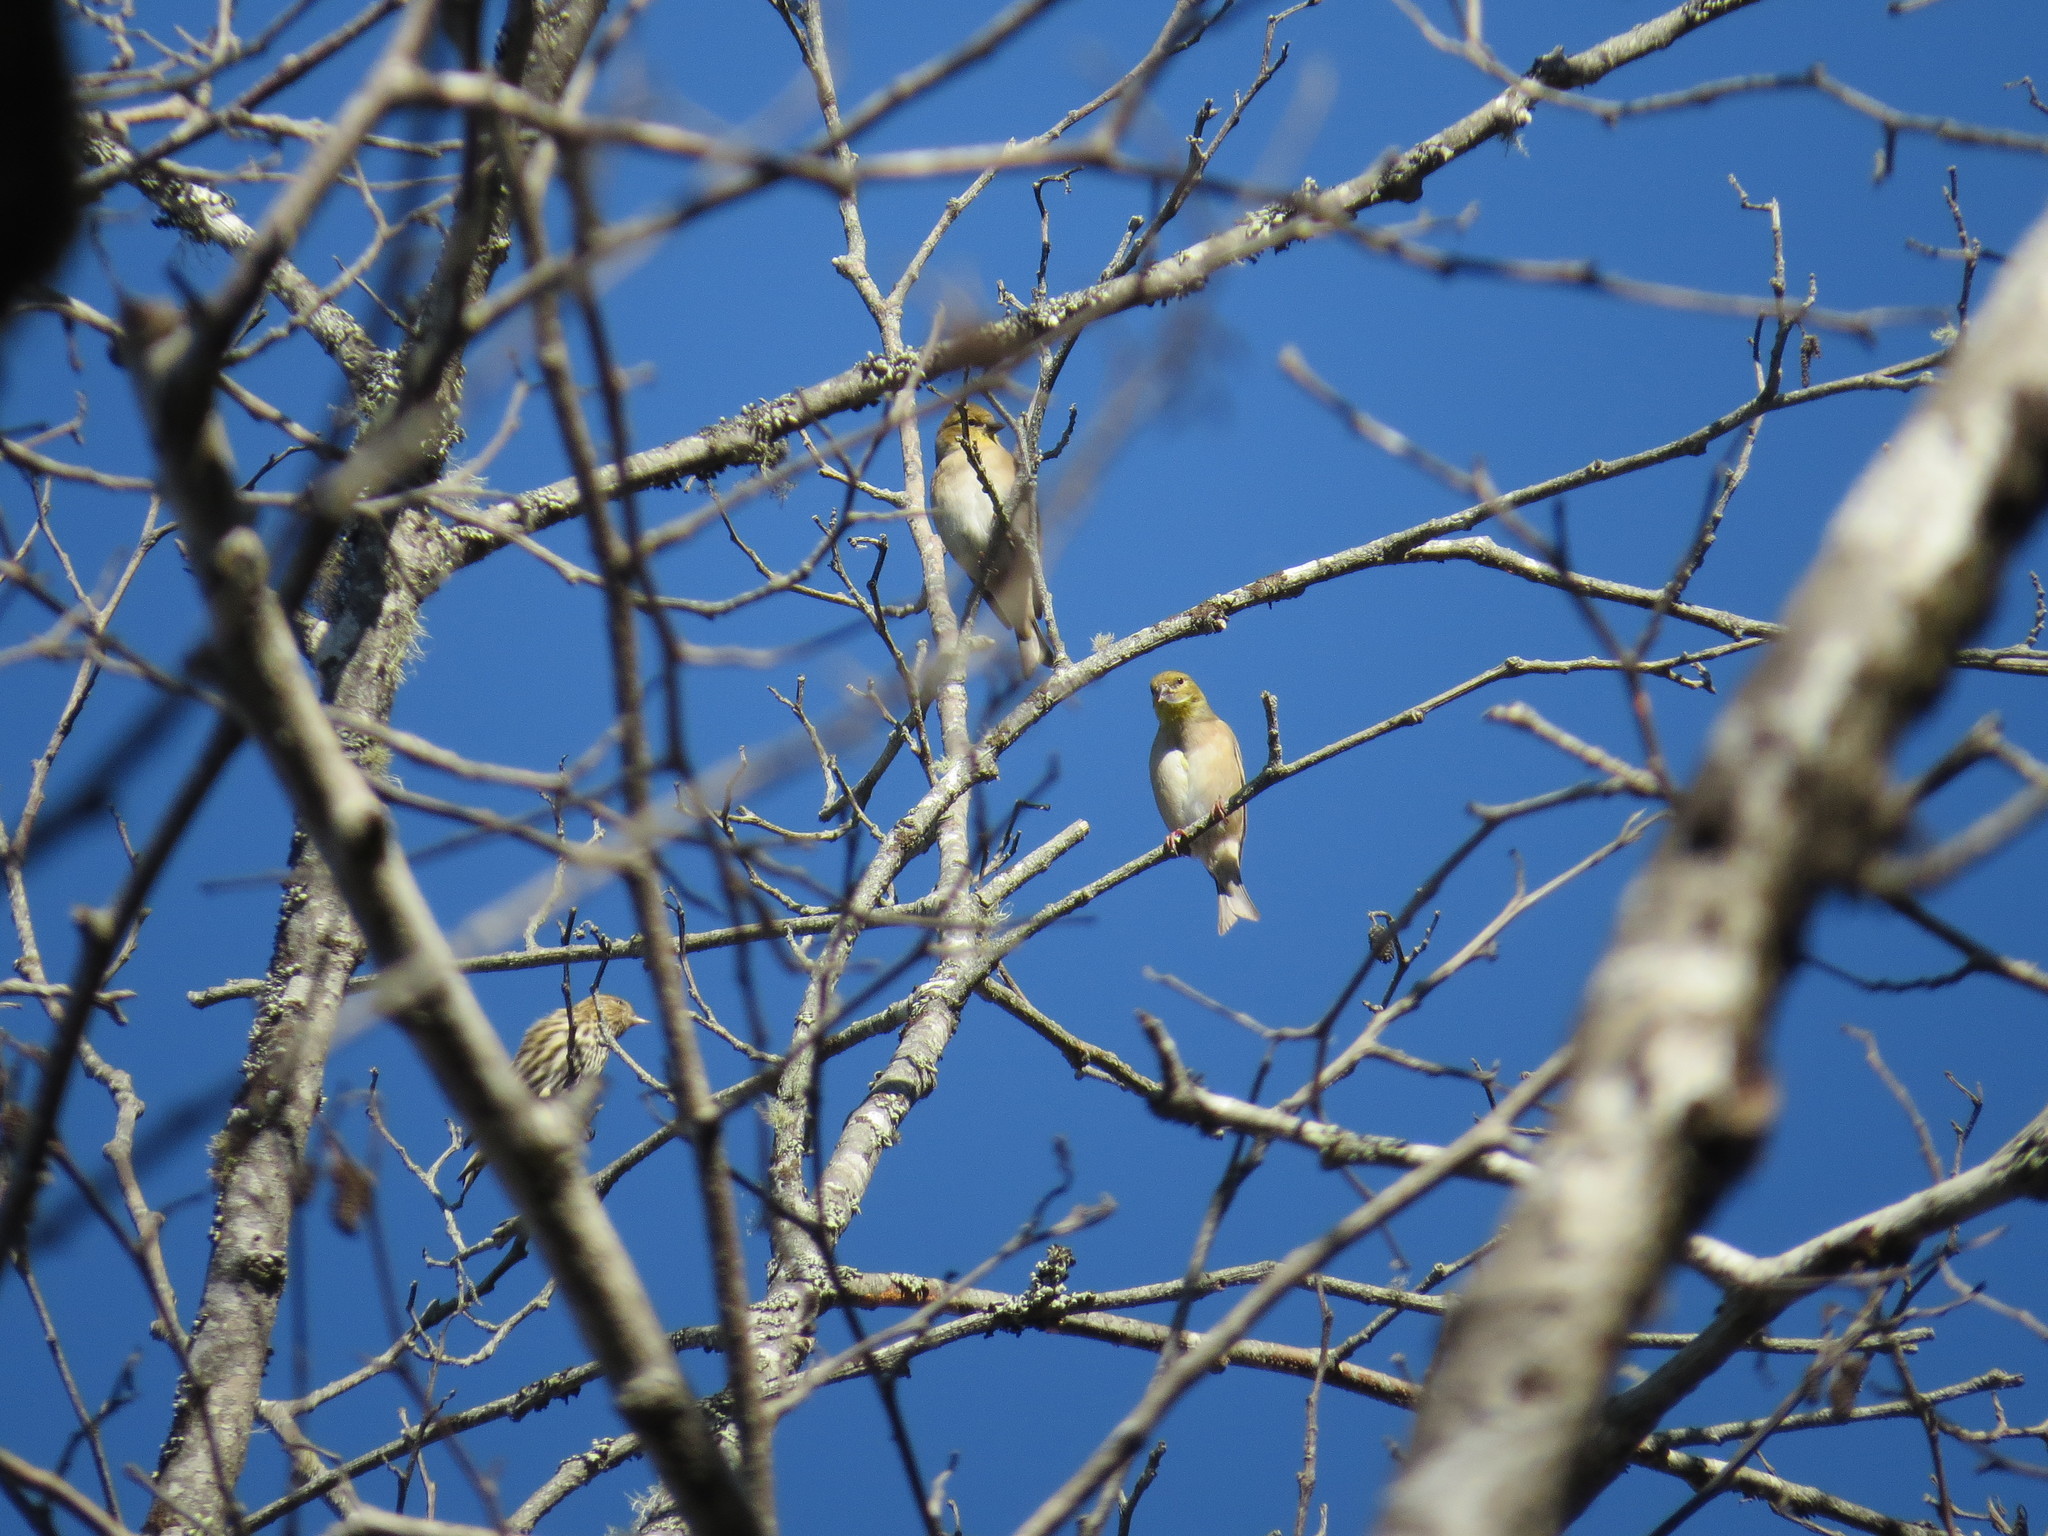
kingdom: Animalia
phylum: Chordata
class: Aves
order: Passeriformes
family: Fringillidae
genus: Spinus
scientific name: Spinus tristis
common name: American goldfinch
